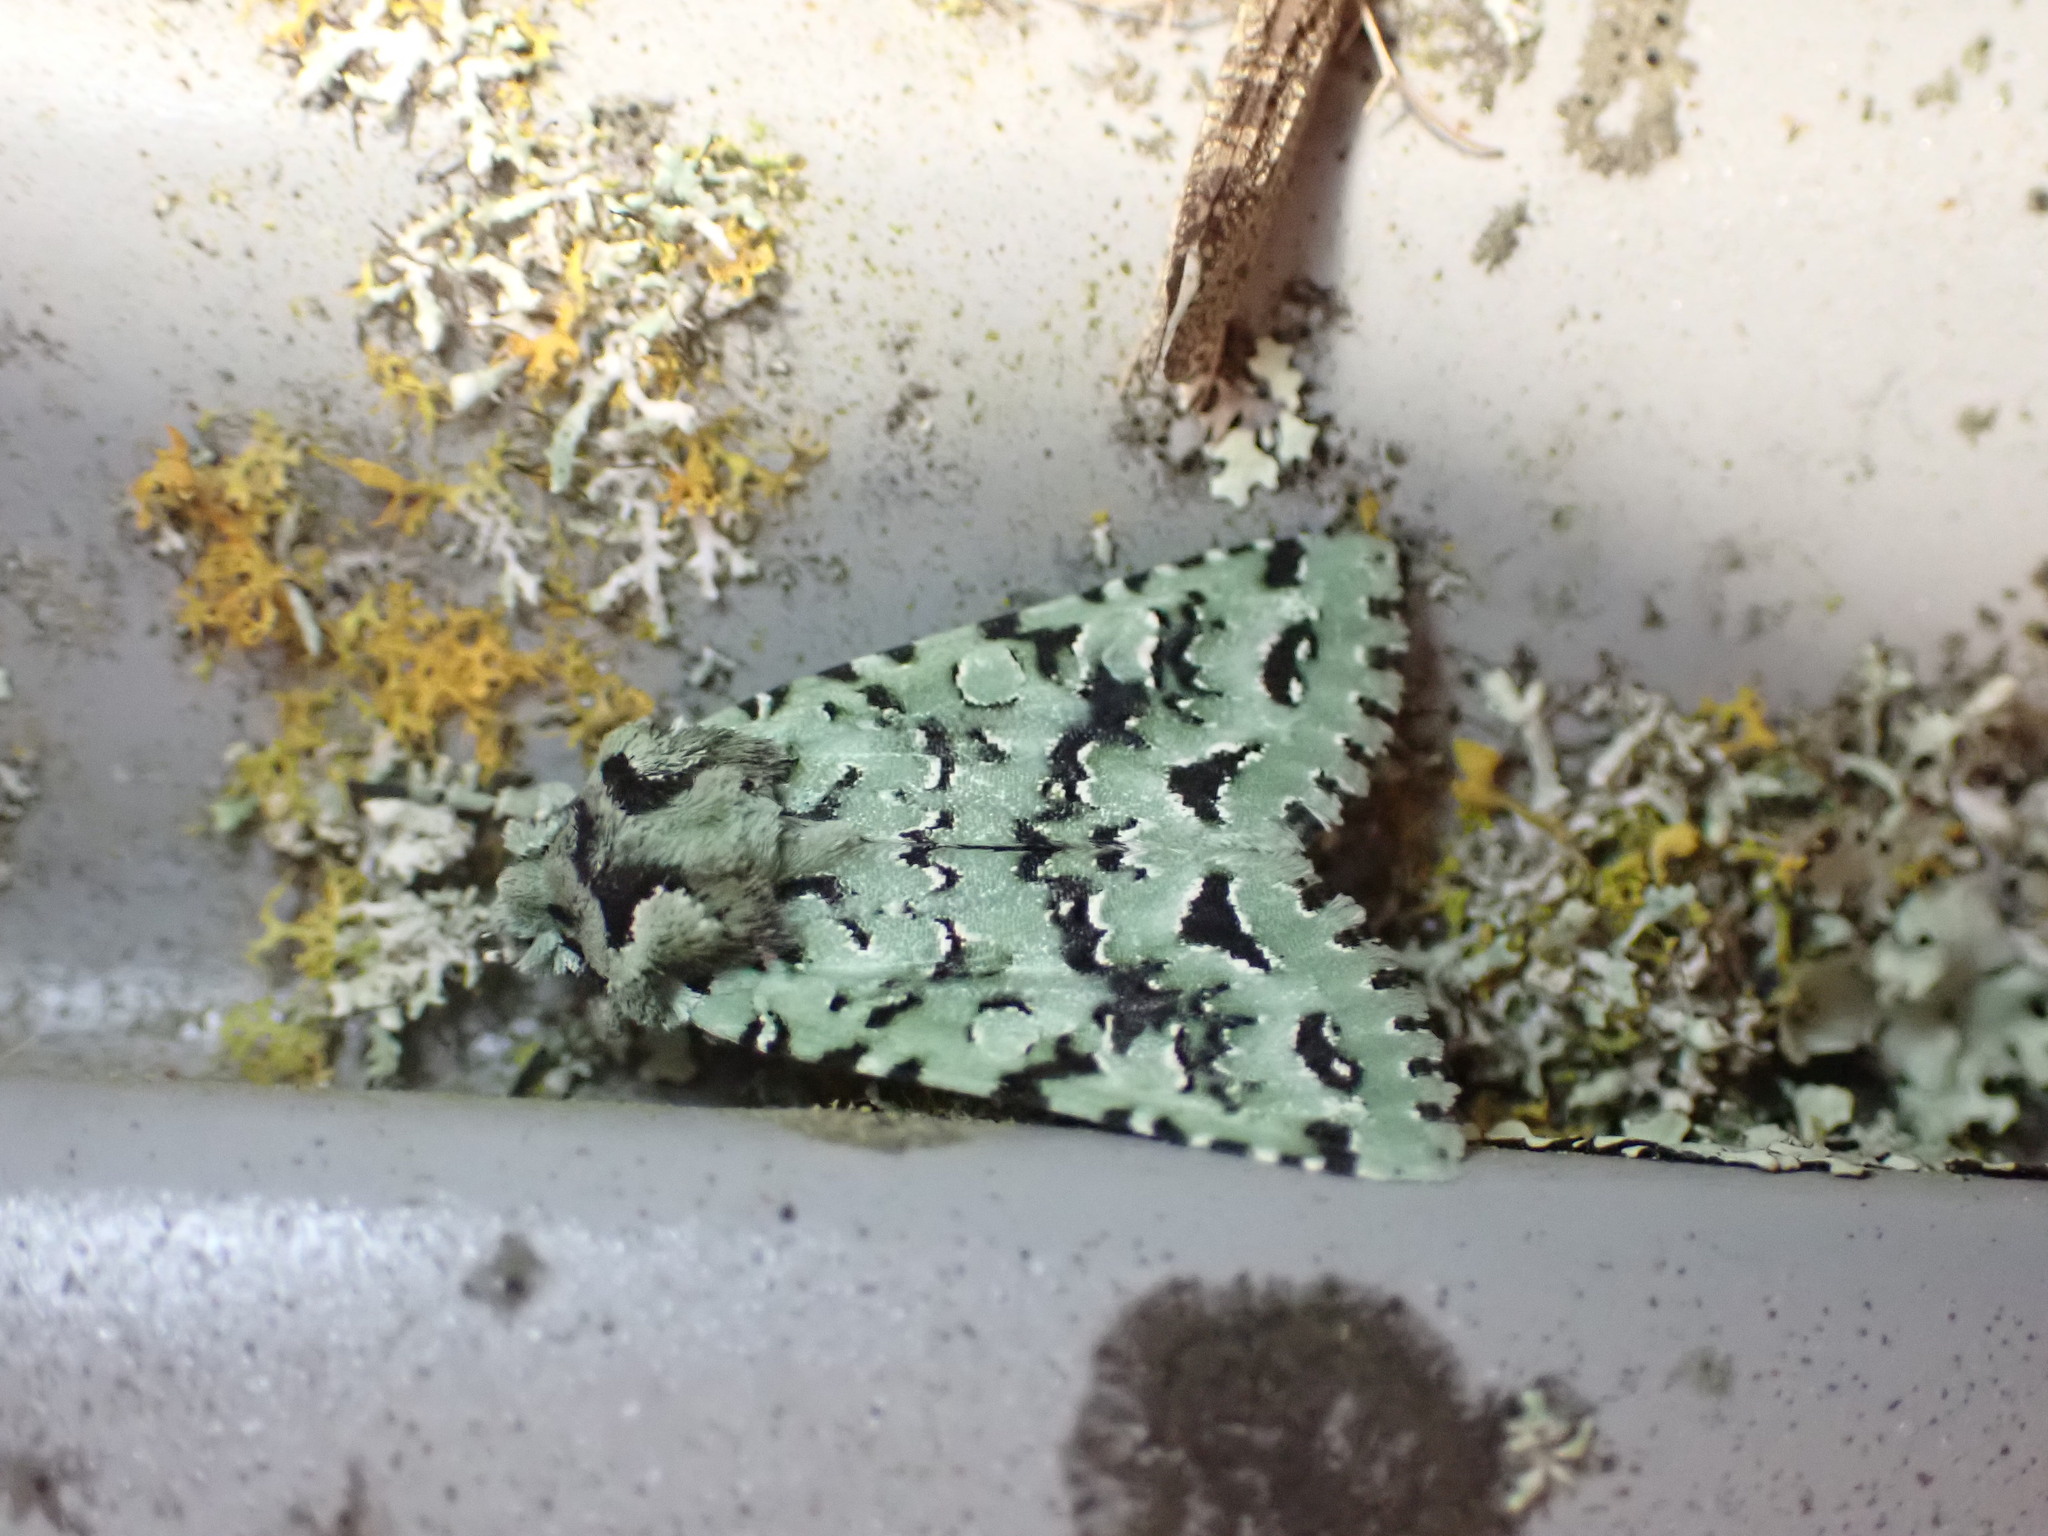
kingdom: Animalia
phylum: Arthropoda
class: Insecta
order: Lepidoptera
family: Noctuidae
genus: Meterana
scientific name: Meterana
